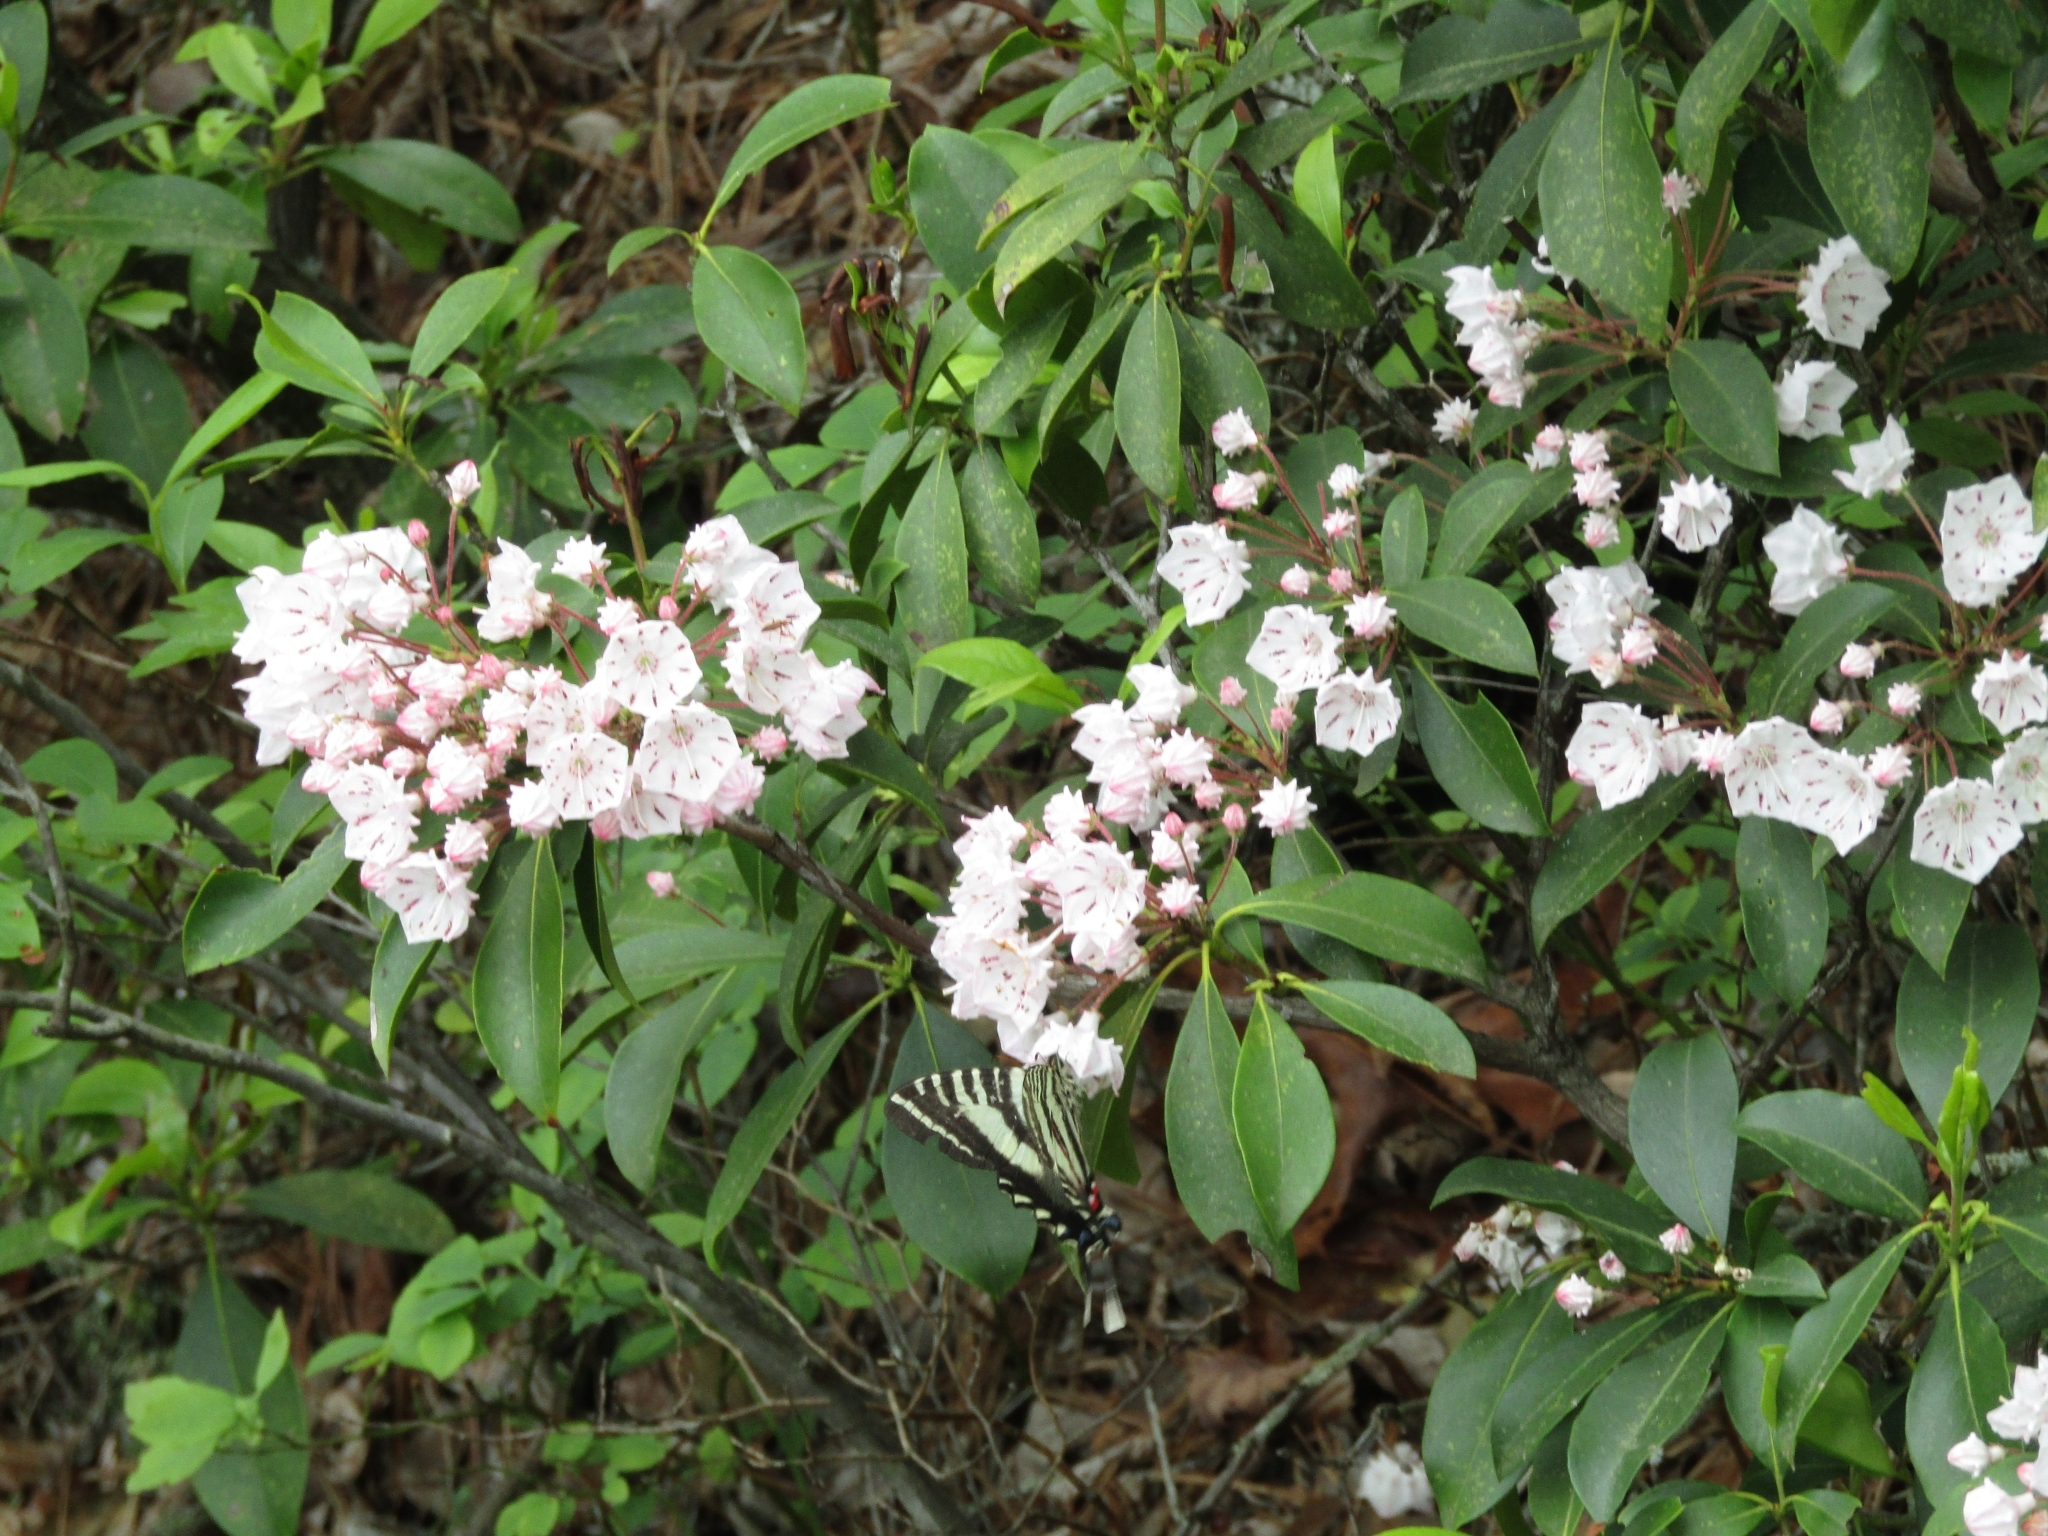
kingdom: Animalia
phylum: Arthropoda
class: Insecta
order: Lepidoptera
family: Papilionidae
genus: Protographium
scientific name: Protographium marcellus
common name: Zebra swallowtail
